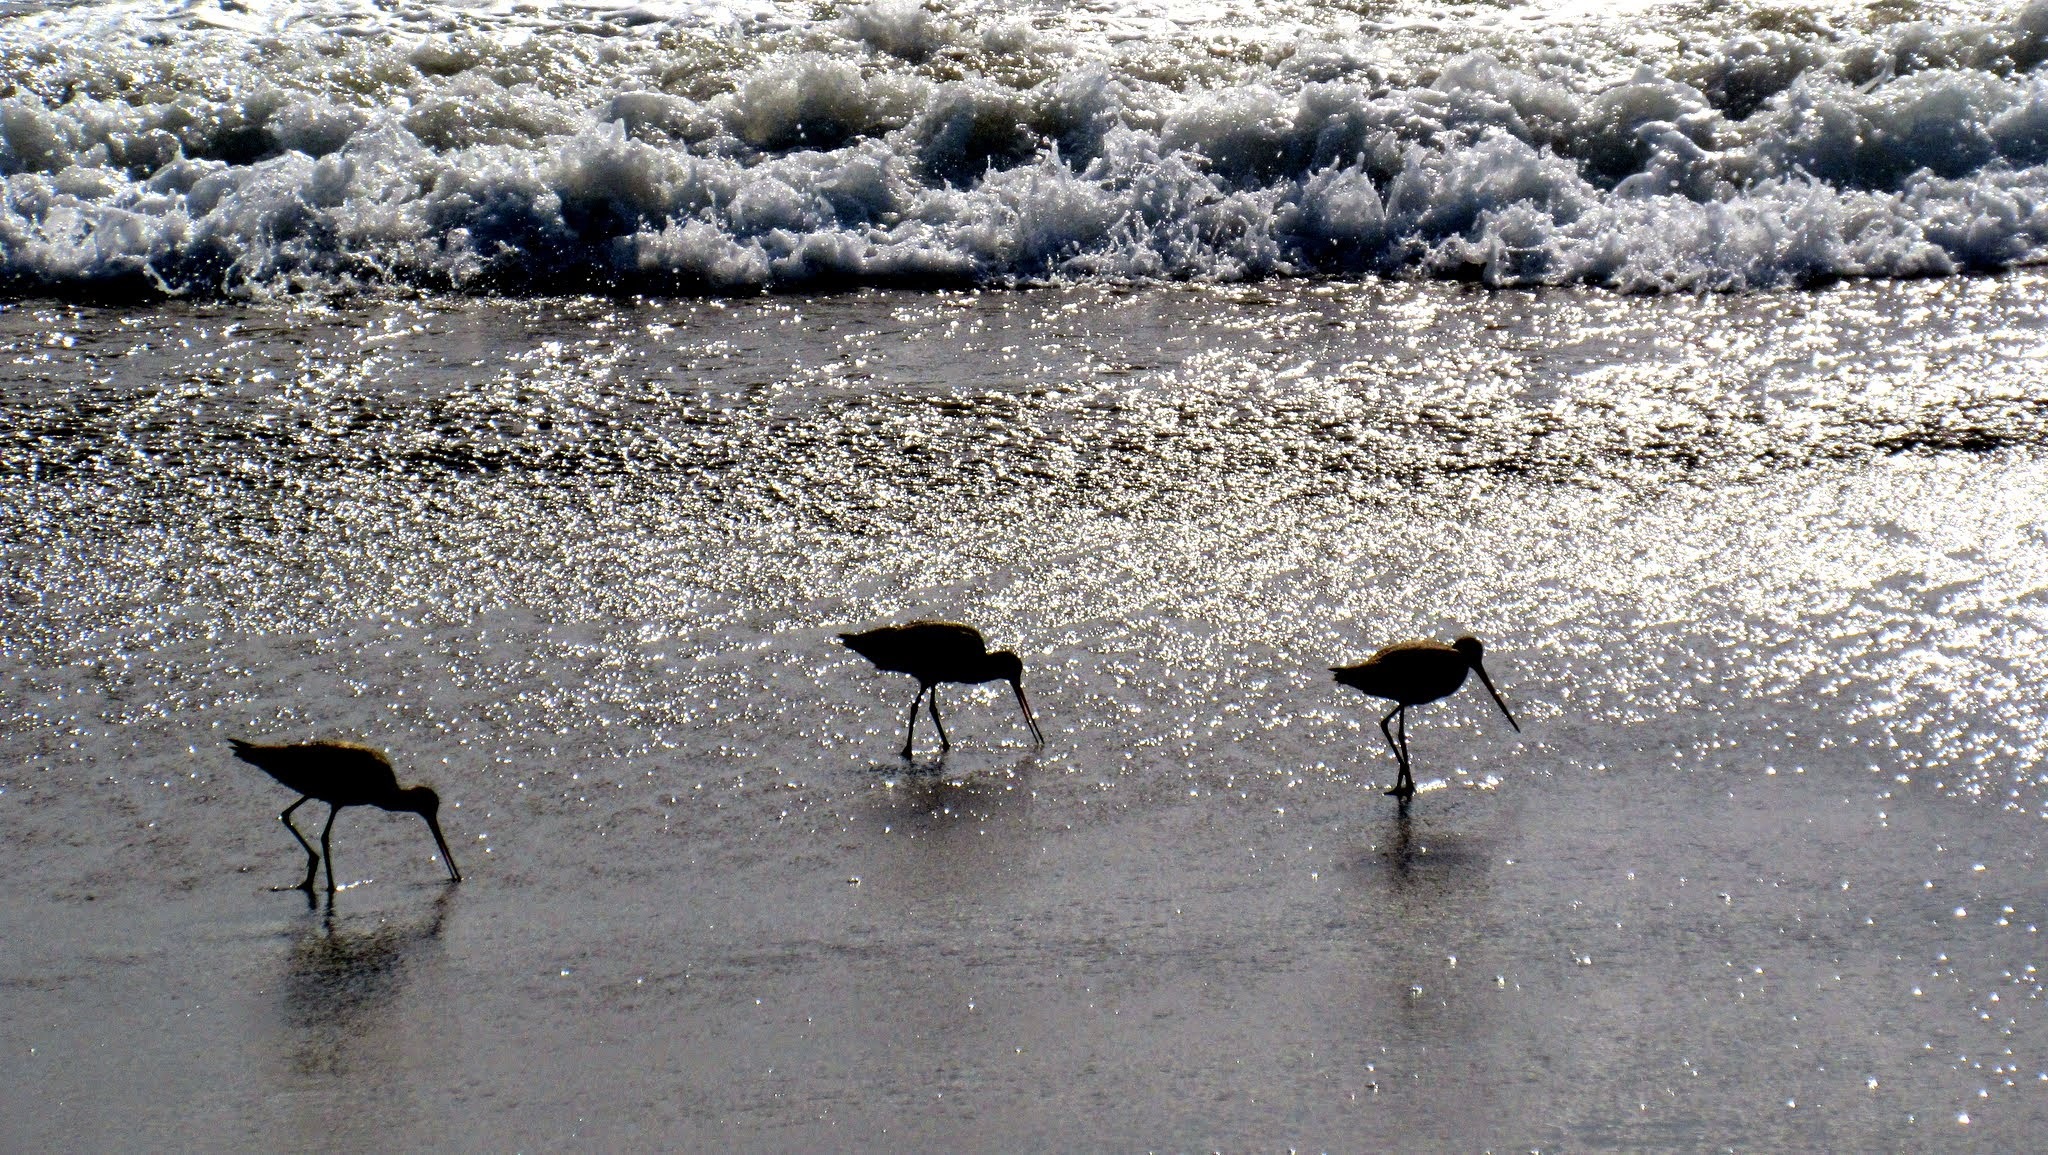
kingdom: Animalia
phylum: Chordata
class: Aves
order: Charadriiformes
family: Scolopacidae
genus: Limosa
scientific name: Limosa fedoa
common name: Marbled godwit
